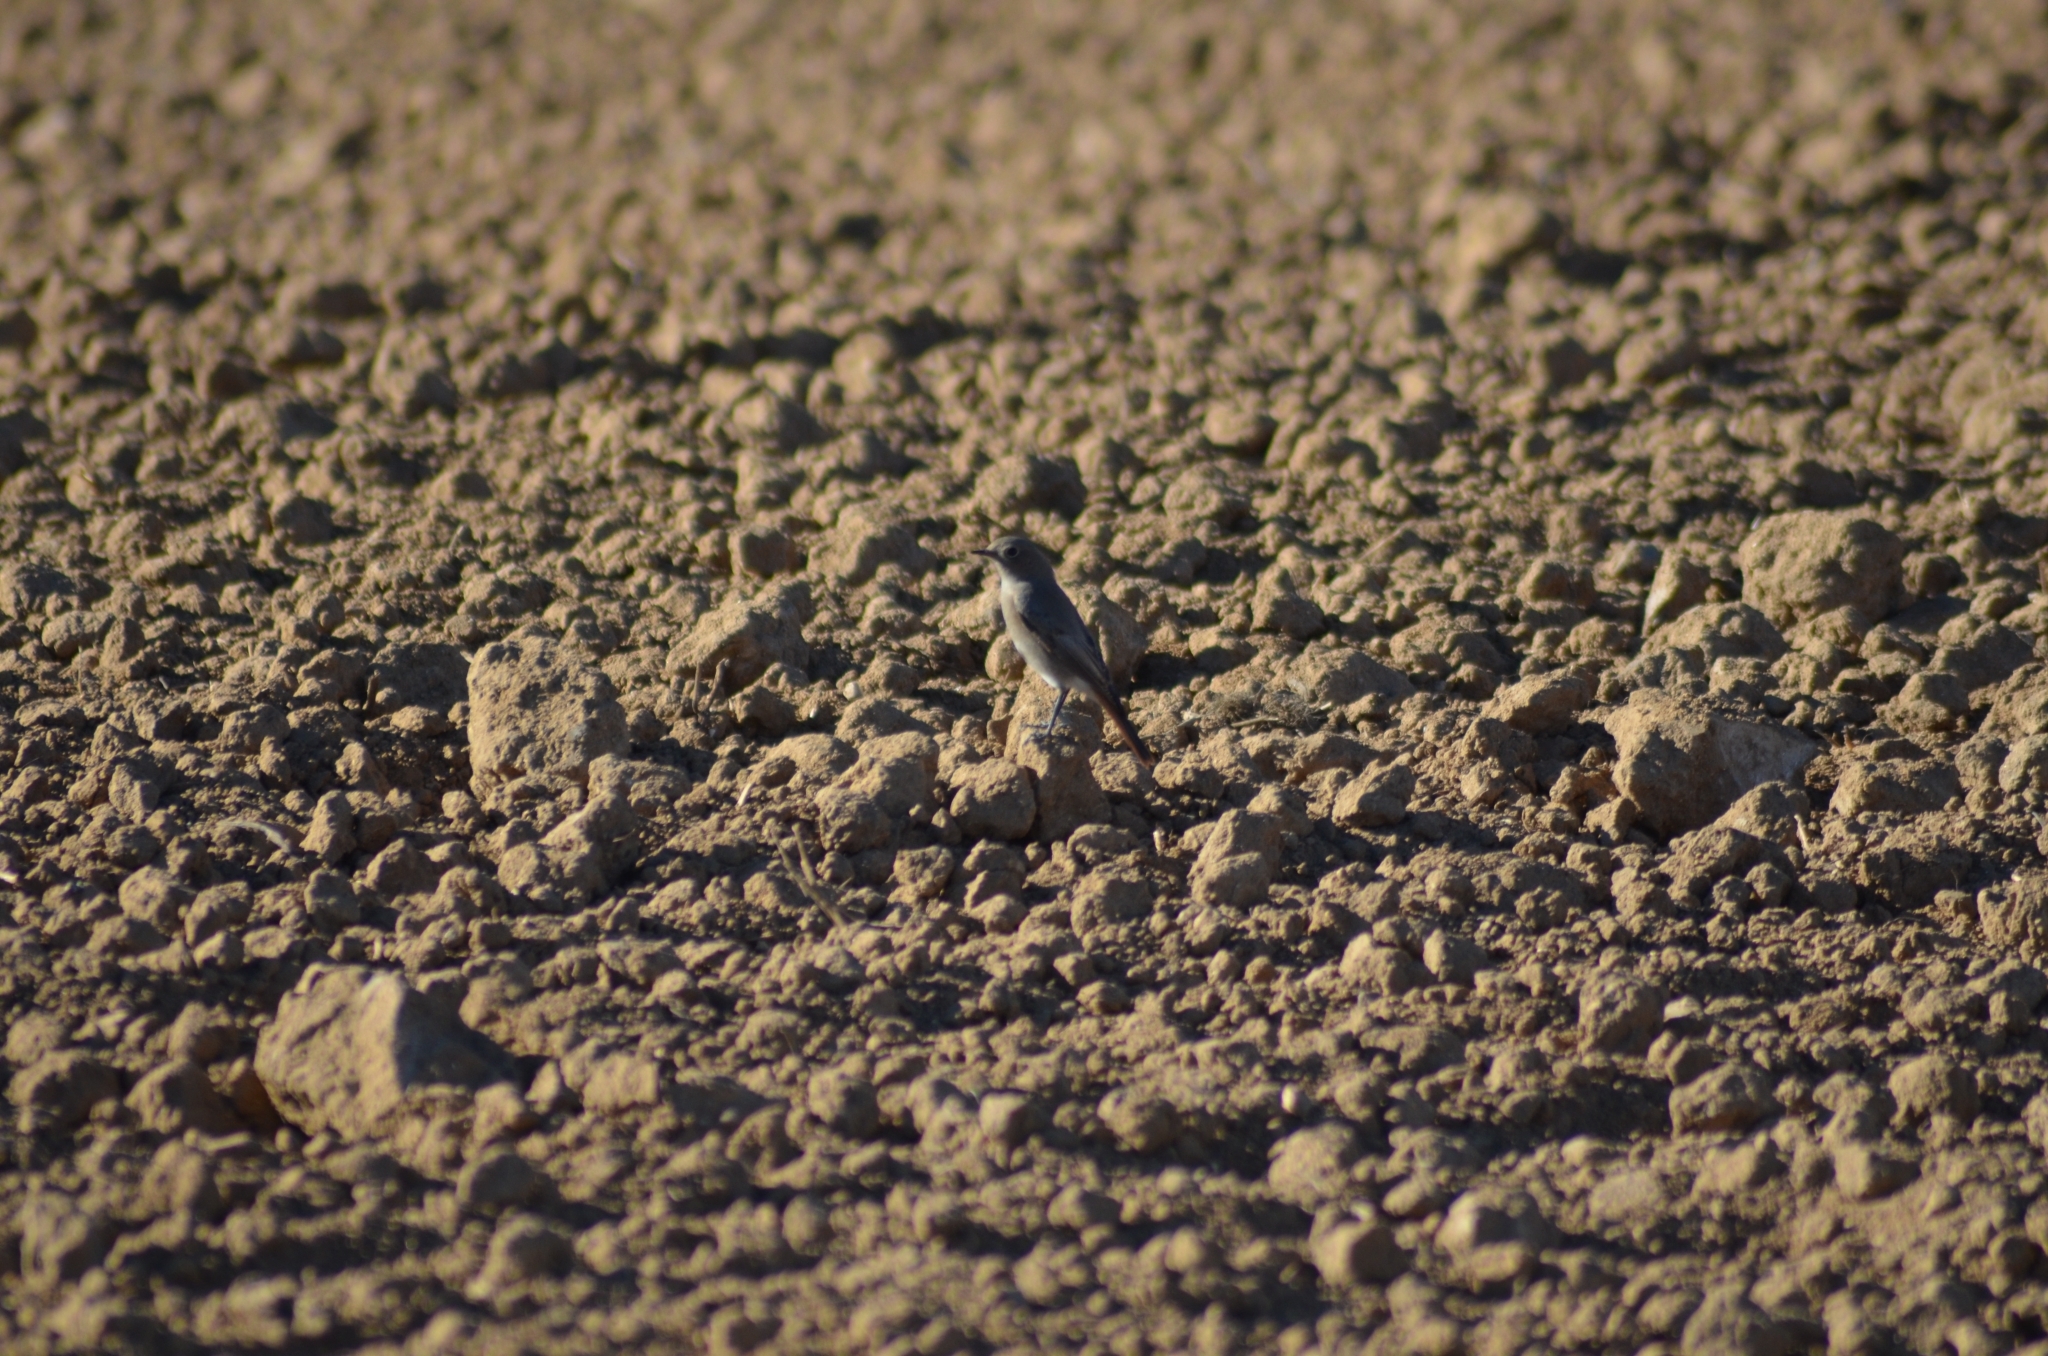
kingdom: Animalia
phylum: Chordata
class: Aves
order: Passeriformes
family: Muscicapidae
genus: Phoenicurus
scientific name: Phoenicurus ochruros
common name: Black redstart
